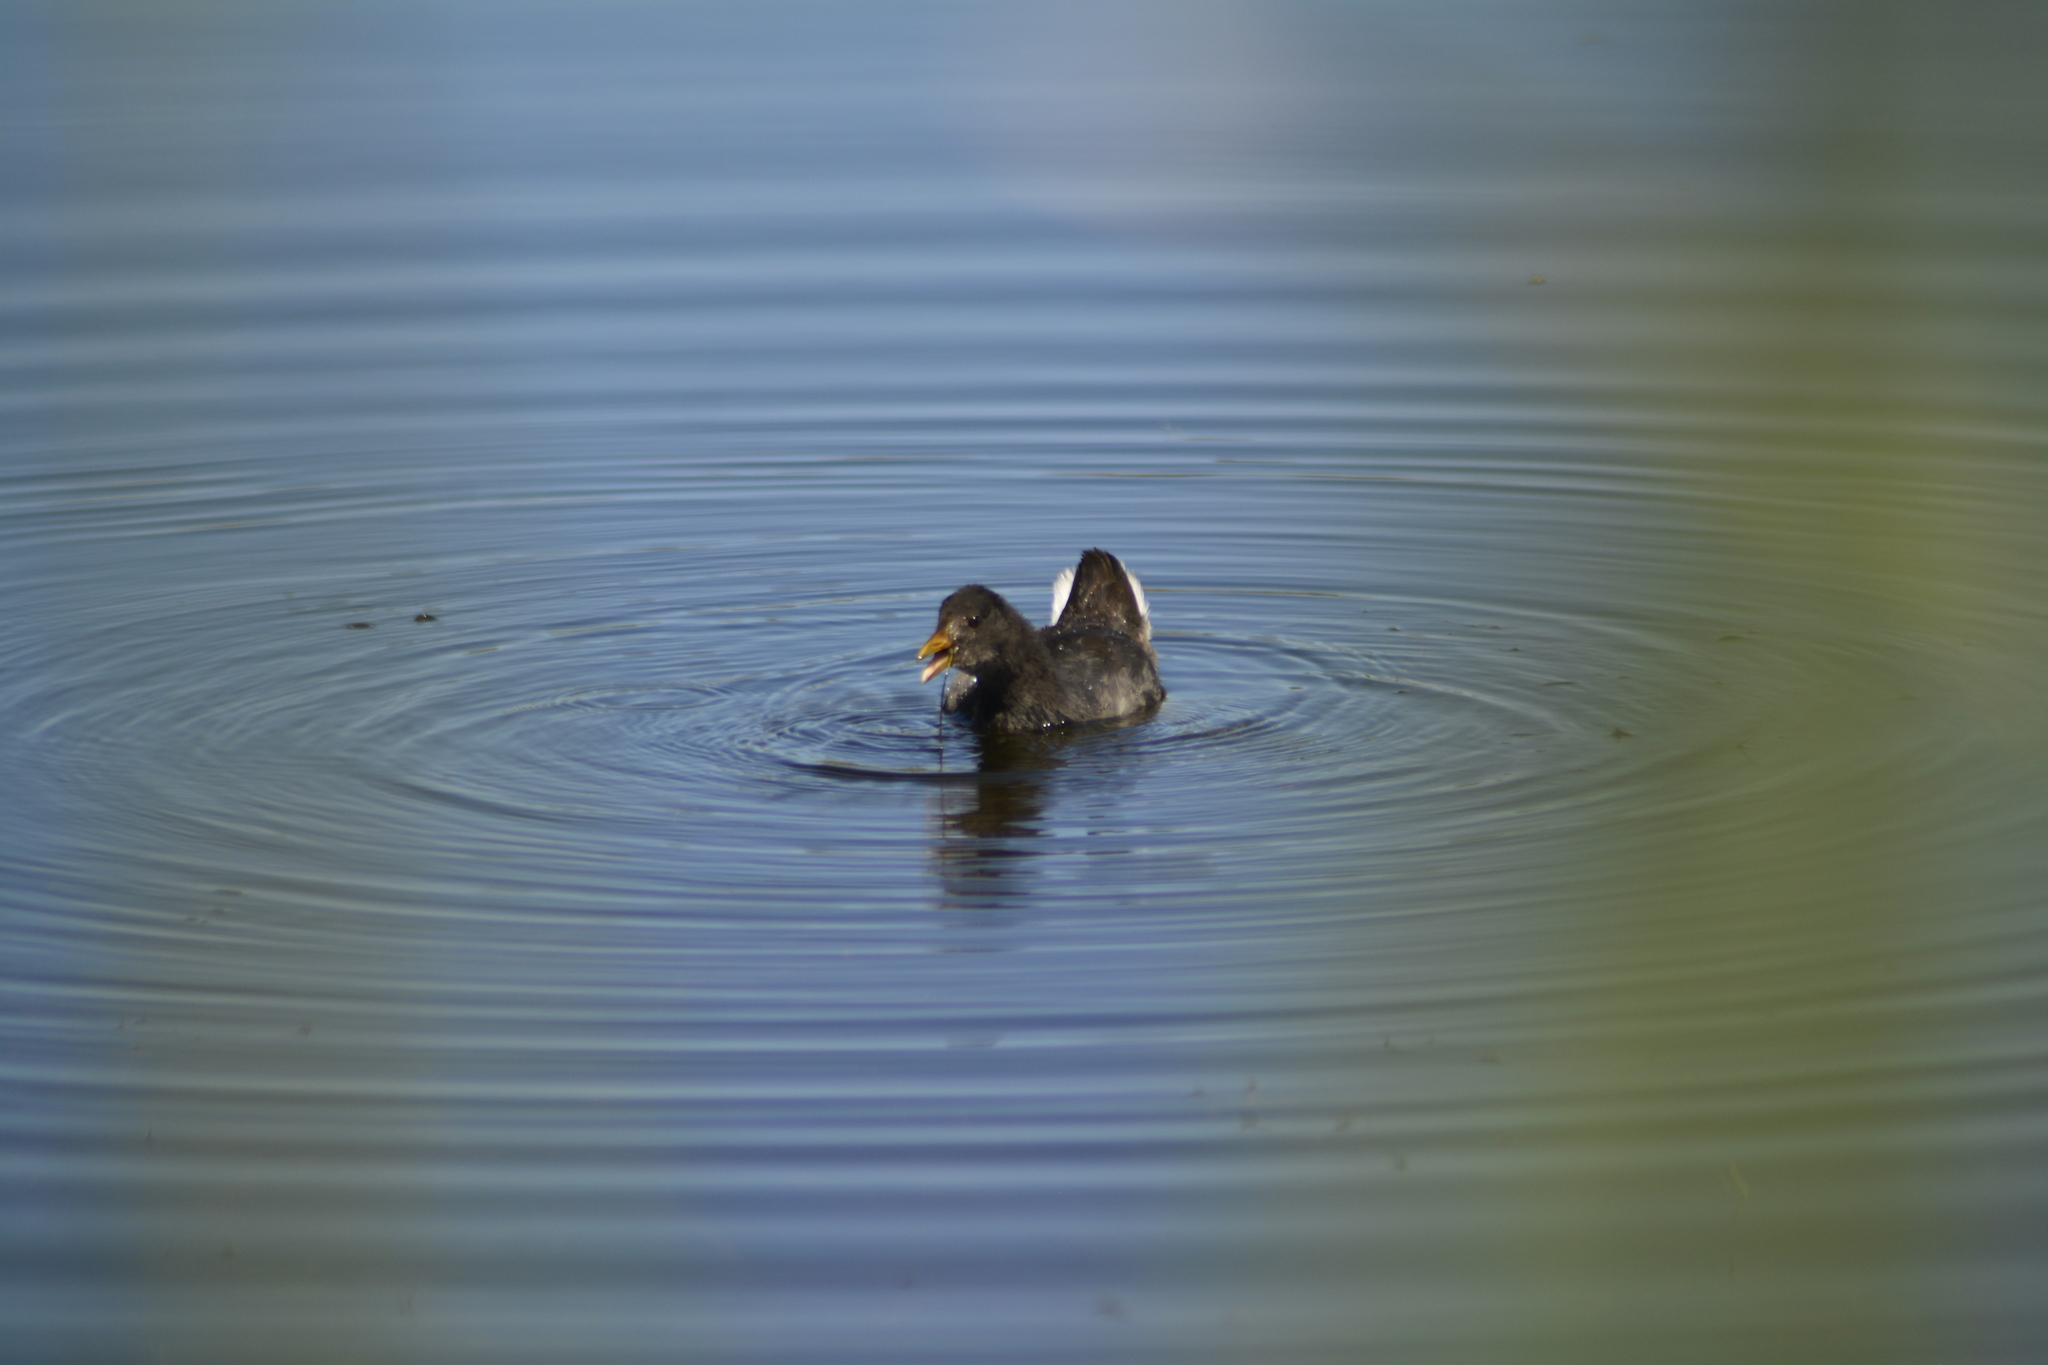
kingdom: Animalia
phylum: Chordata
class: Aves
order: Gruiformes
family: Rallidae
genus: Fulica
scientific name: Fulica rufifrons
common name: Red-fronted coot
